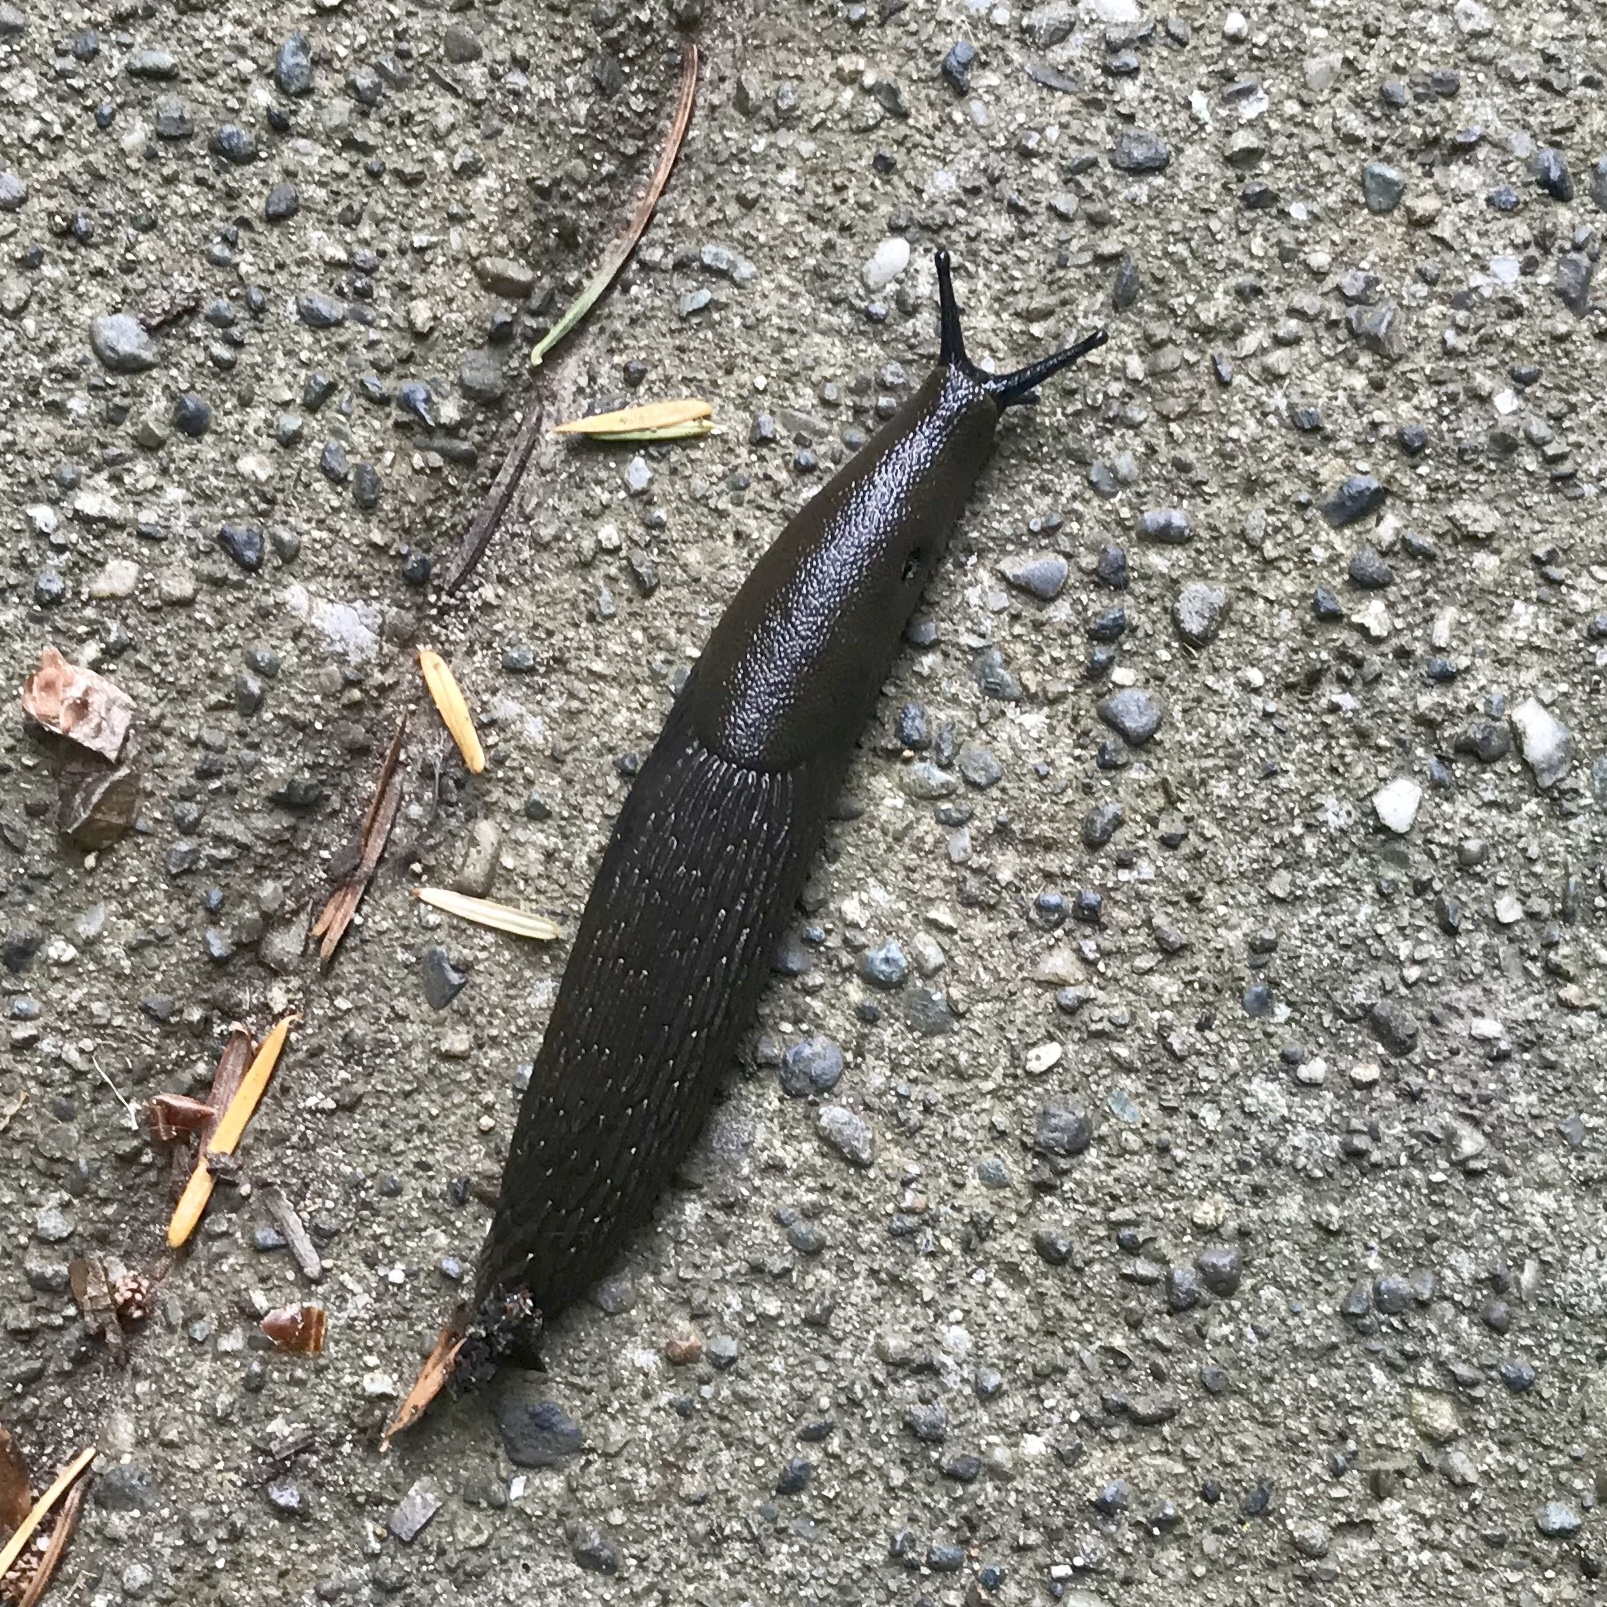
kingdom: Animalia
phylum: Mollusca
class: Gastropoda
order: Stylommatophora
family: Arionidae
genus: Arion
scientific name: Arion
